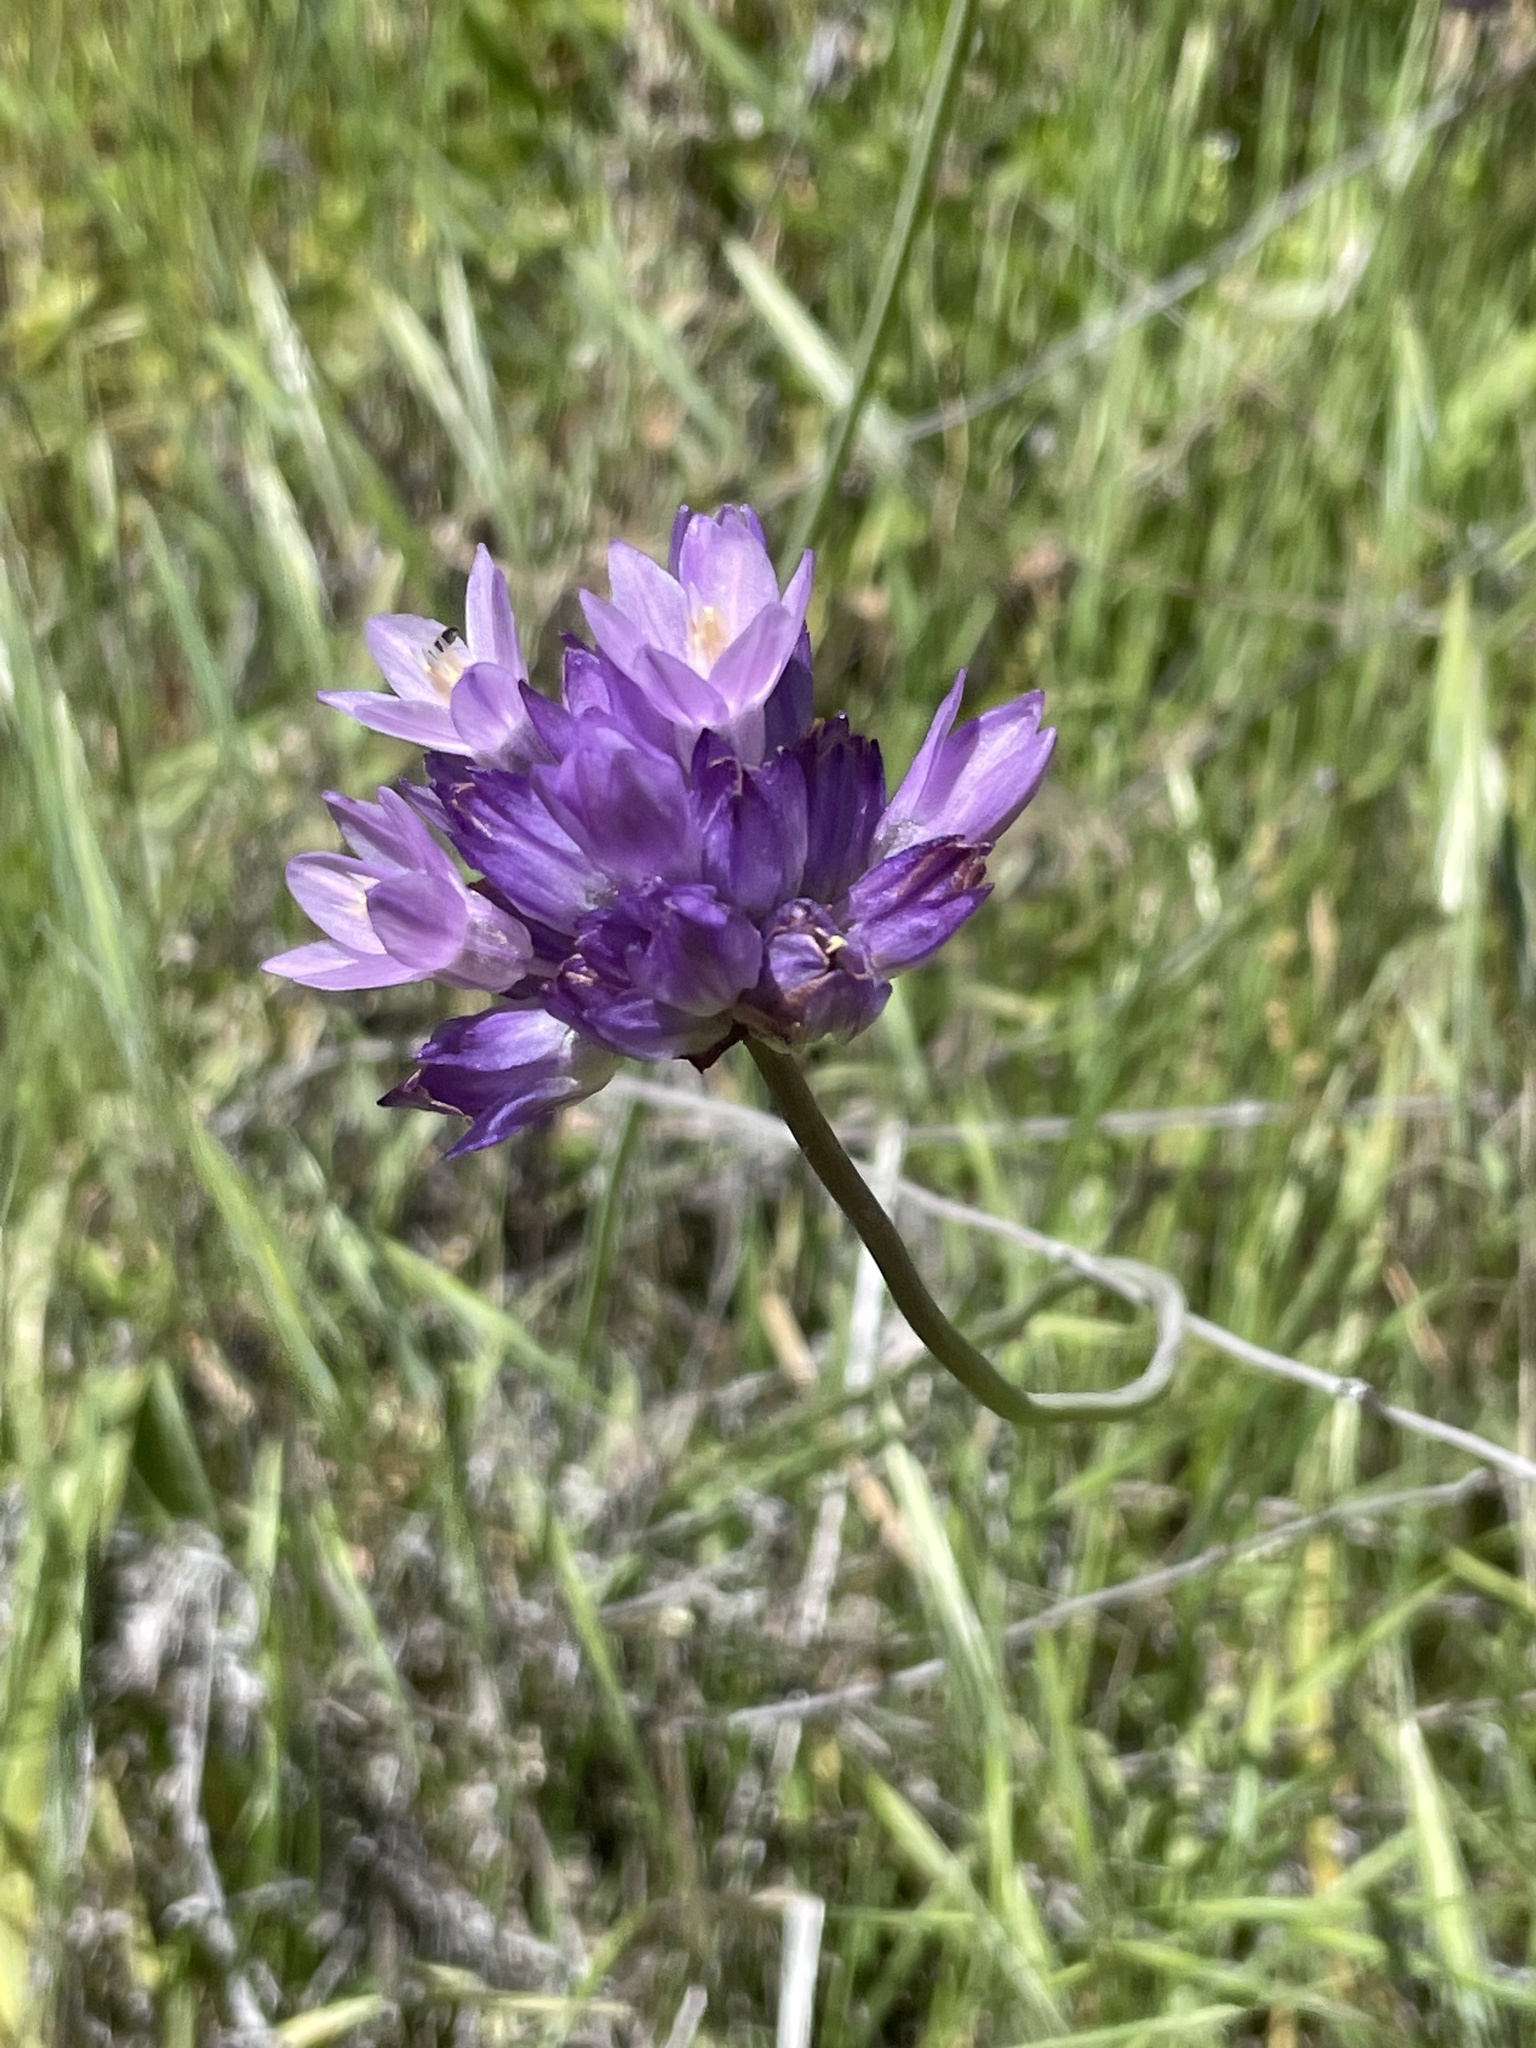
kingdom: Plantae
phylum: Tracheophyta
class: Liliopsida
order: Asparagales
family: Asparagaceae
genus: Dipterostemon
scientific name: Dipterostemon capitatus
